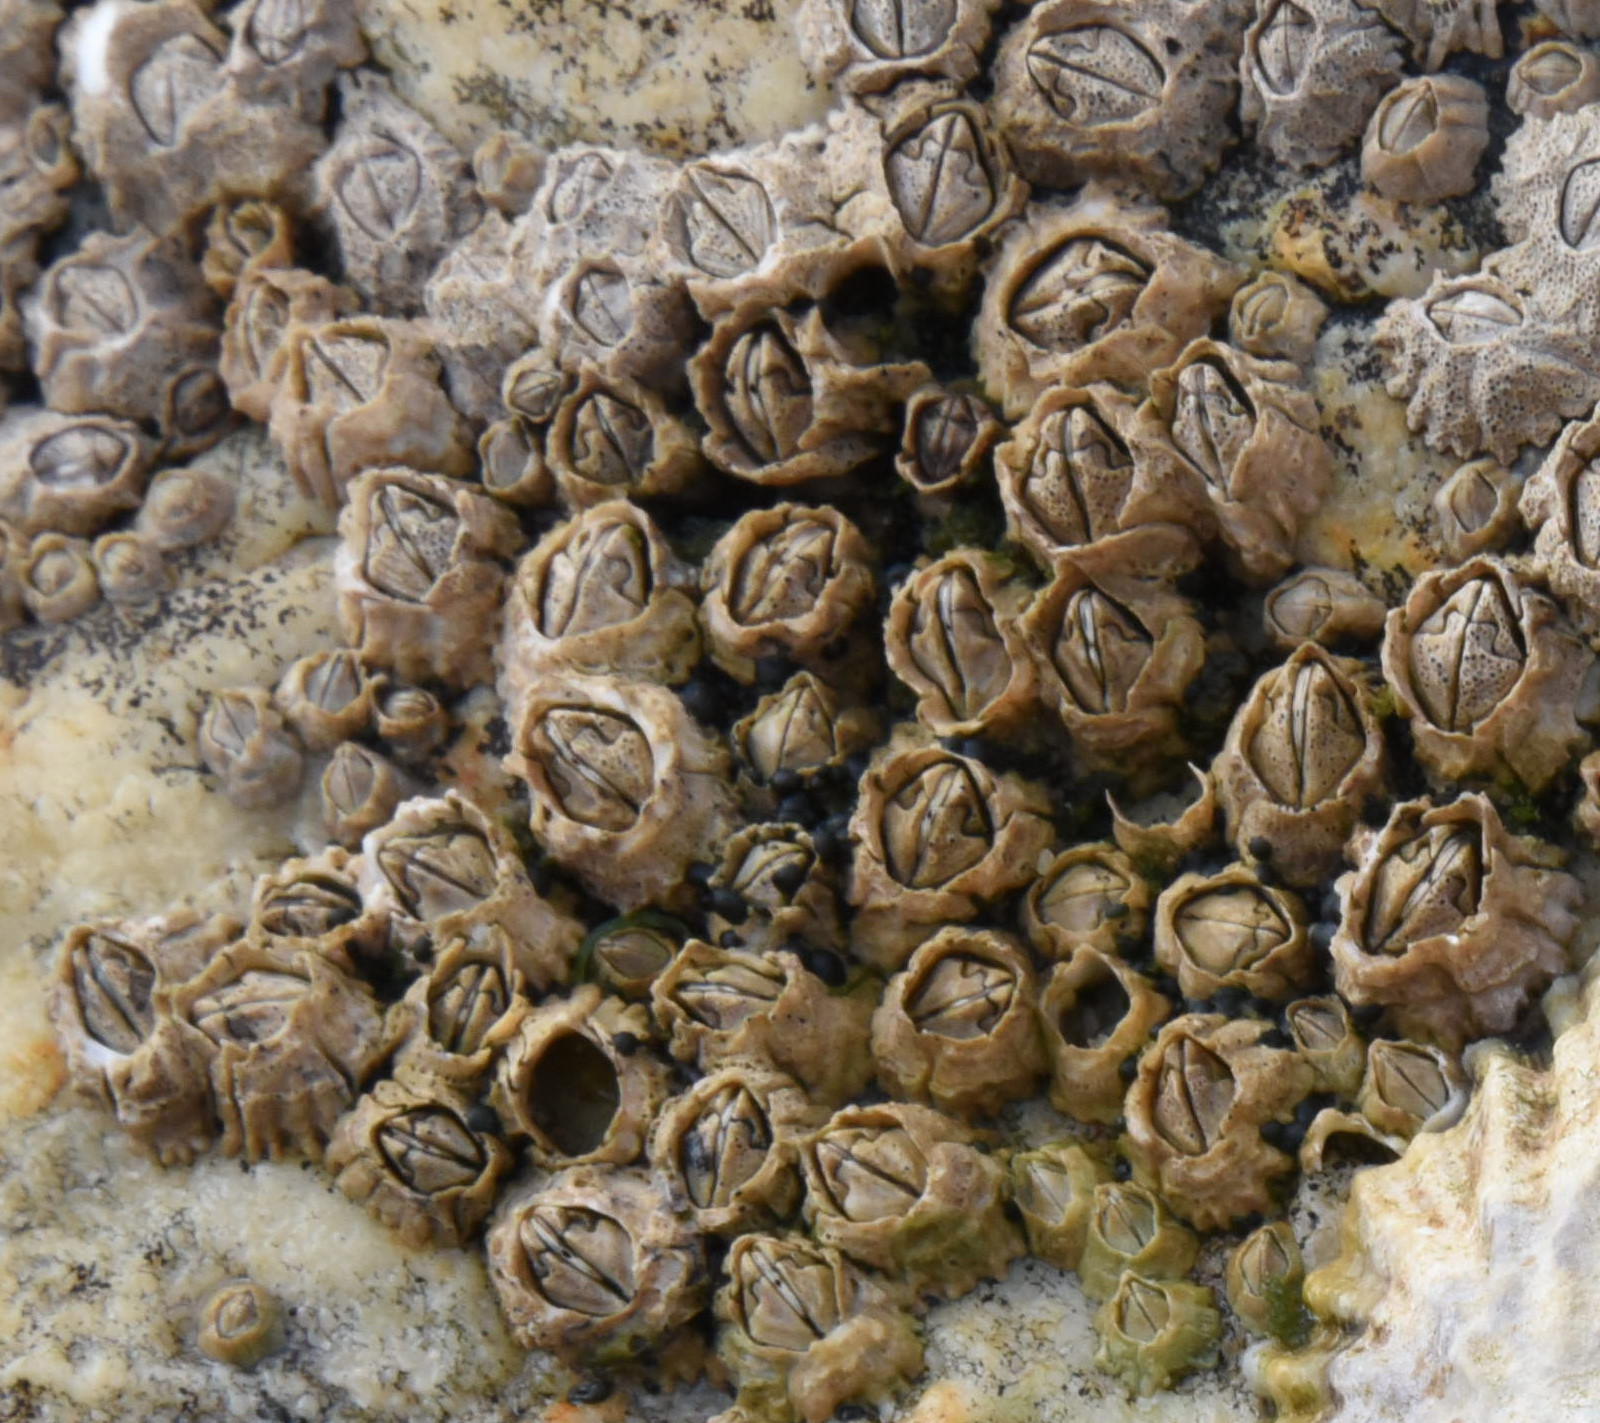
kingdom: Animalia
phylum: Arthropoda
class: Maxillopoda
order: Sessilia
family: Archaeobalanidae
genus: Semibalanus
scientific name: Semibalanus balanoides
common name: Acorn barnacle
